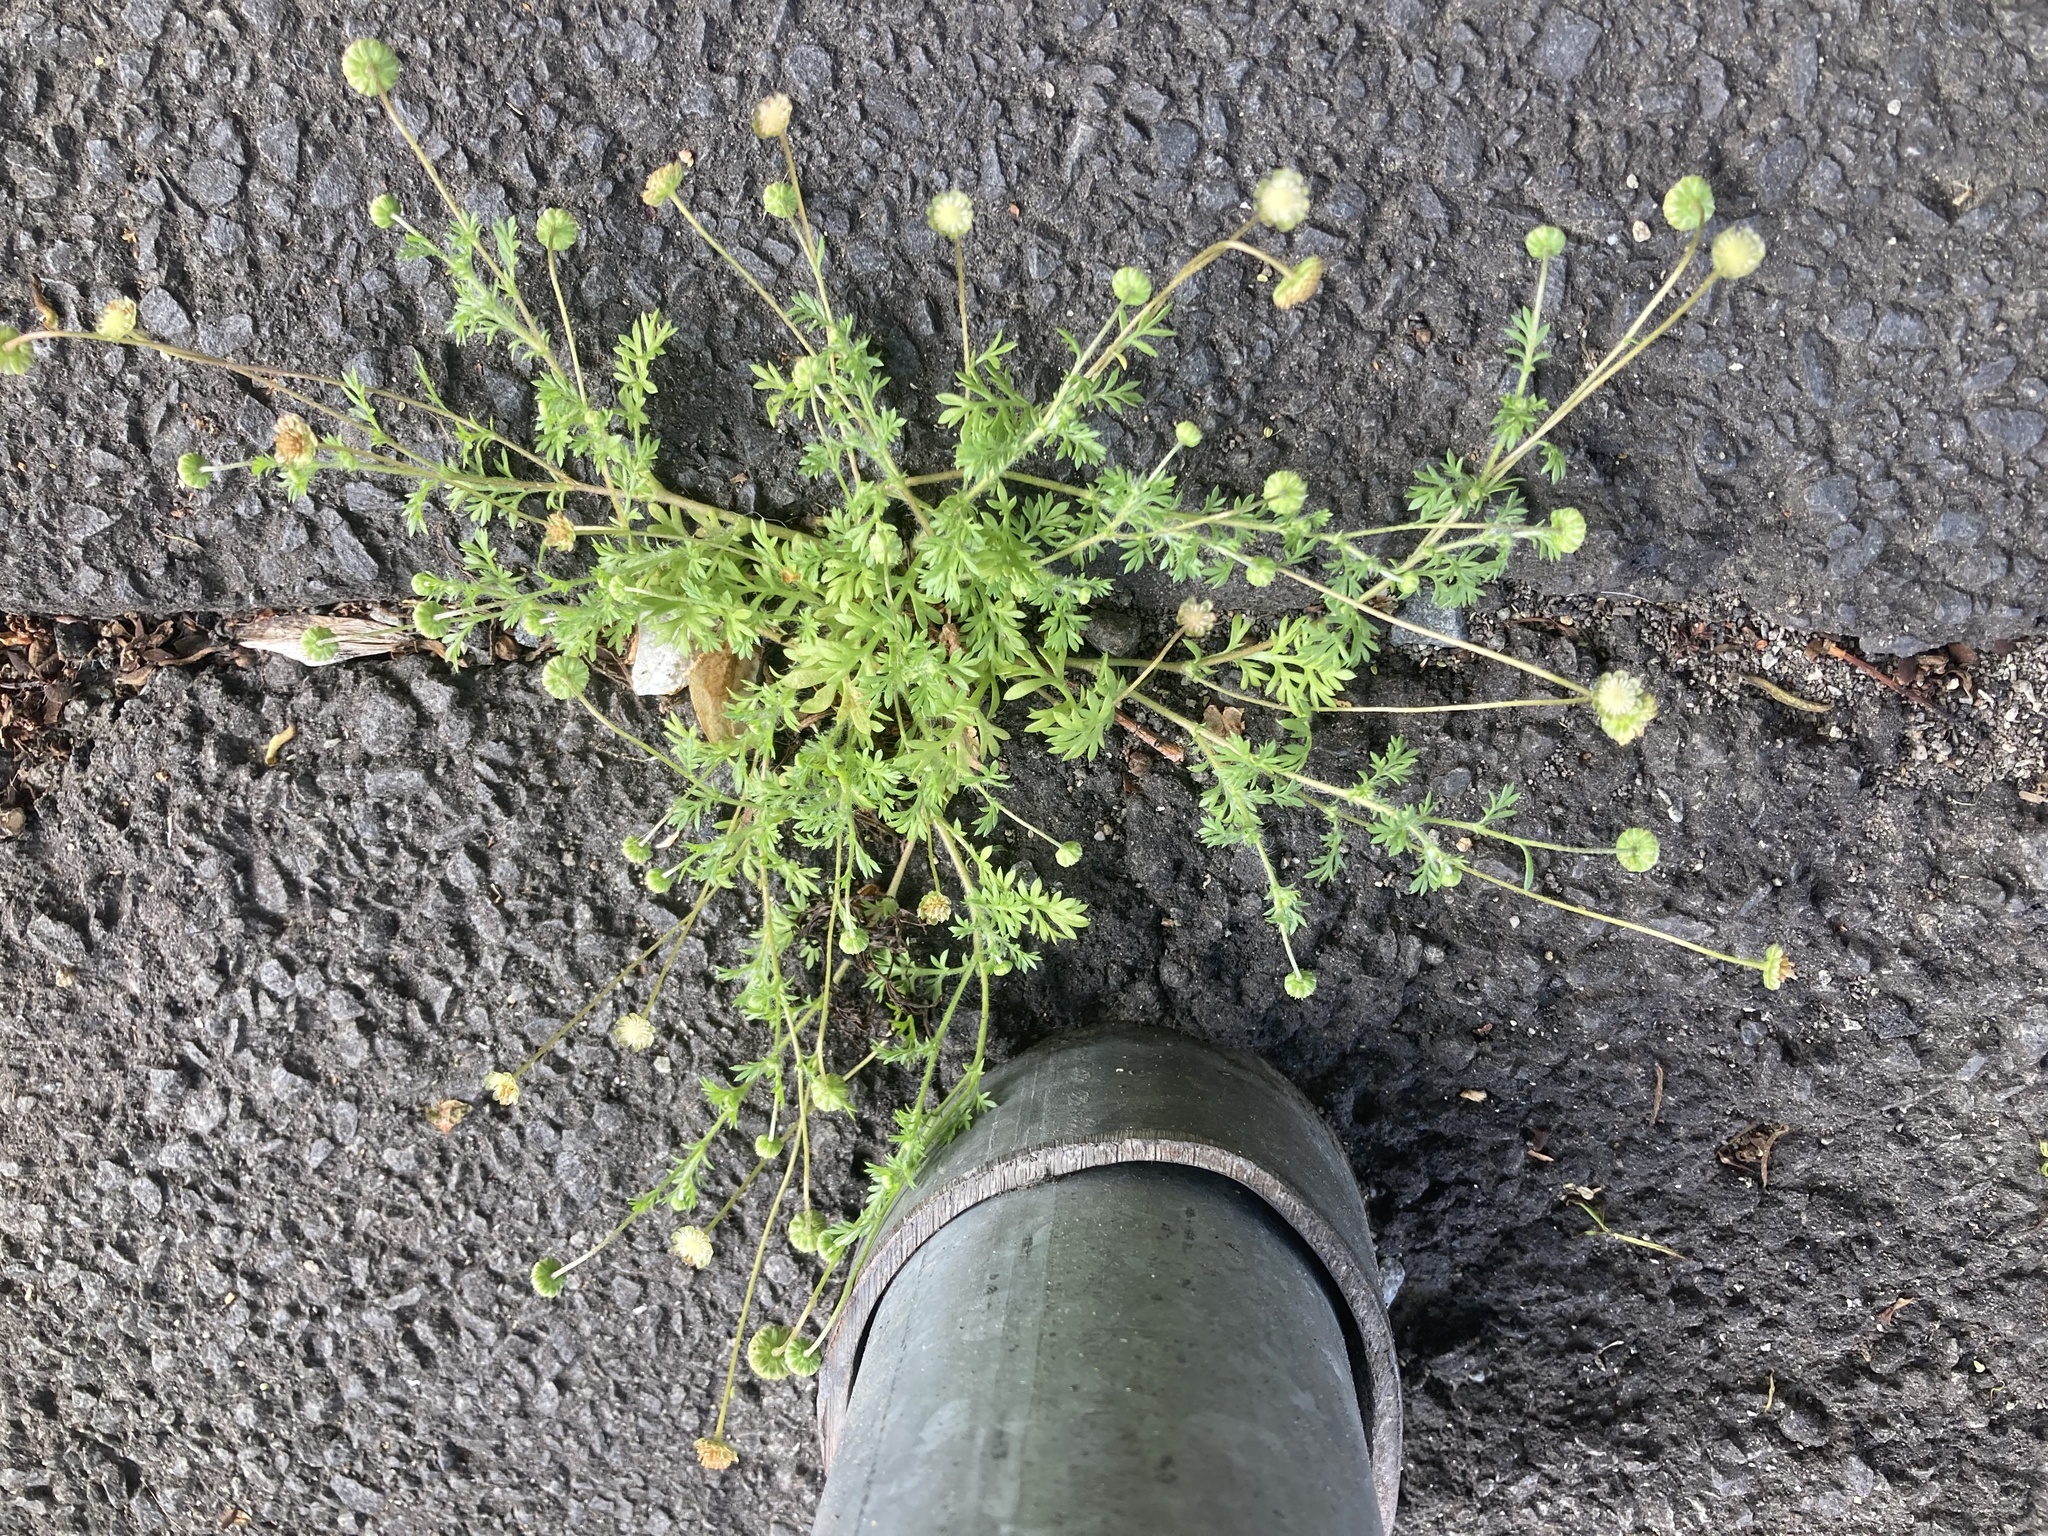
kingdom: Plantae
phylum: Tracheophyta
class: Magnoliopsida
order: Asterales
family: Asteraceae
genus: Cotula
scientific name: Cotula australis
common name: Australian waterbuttons
